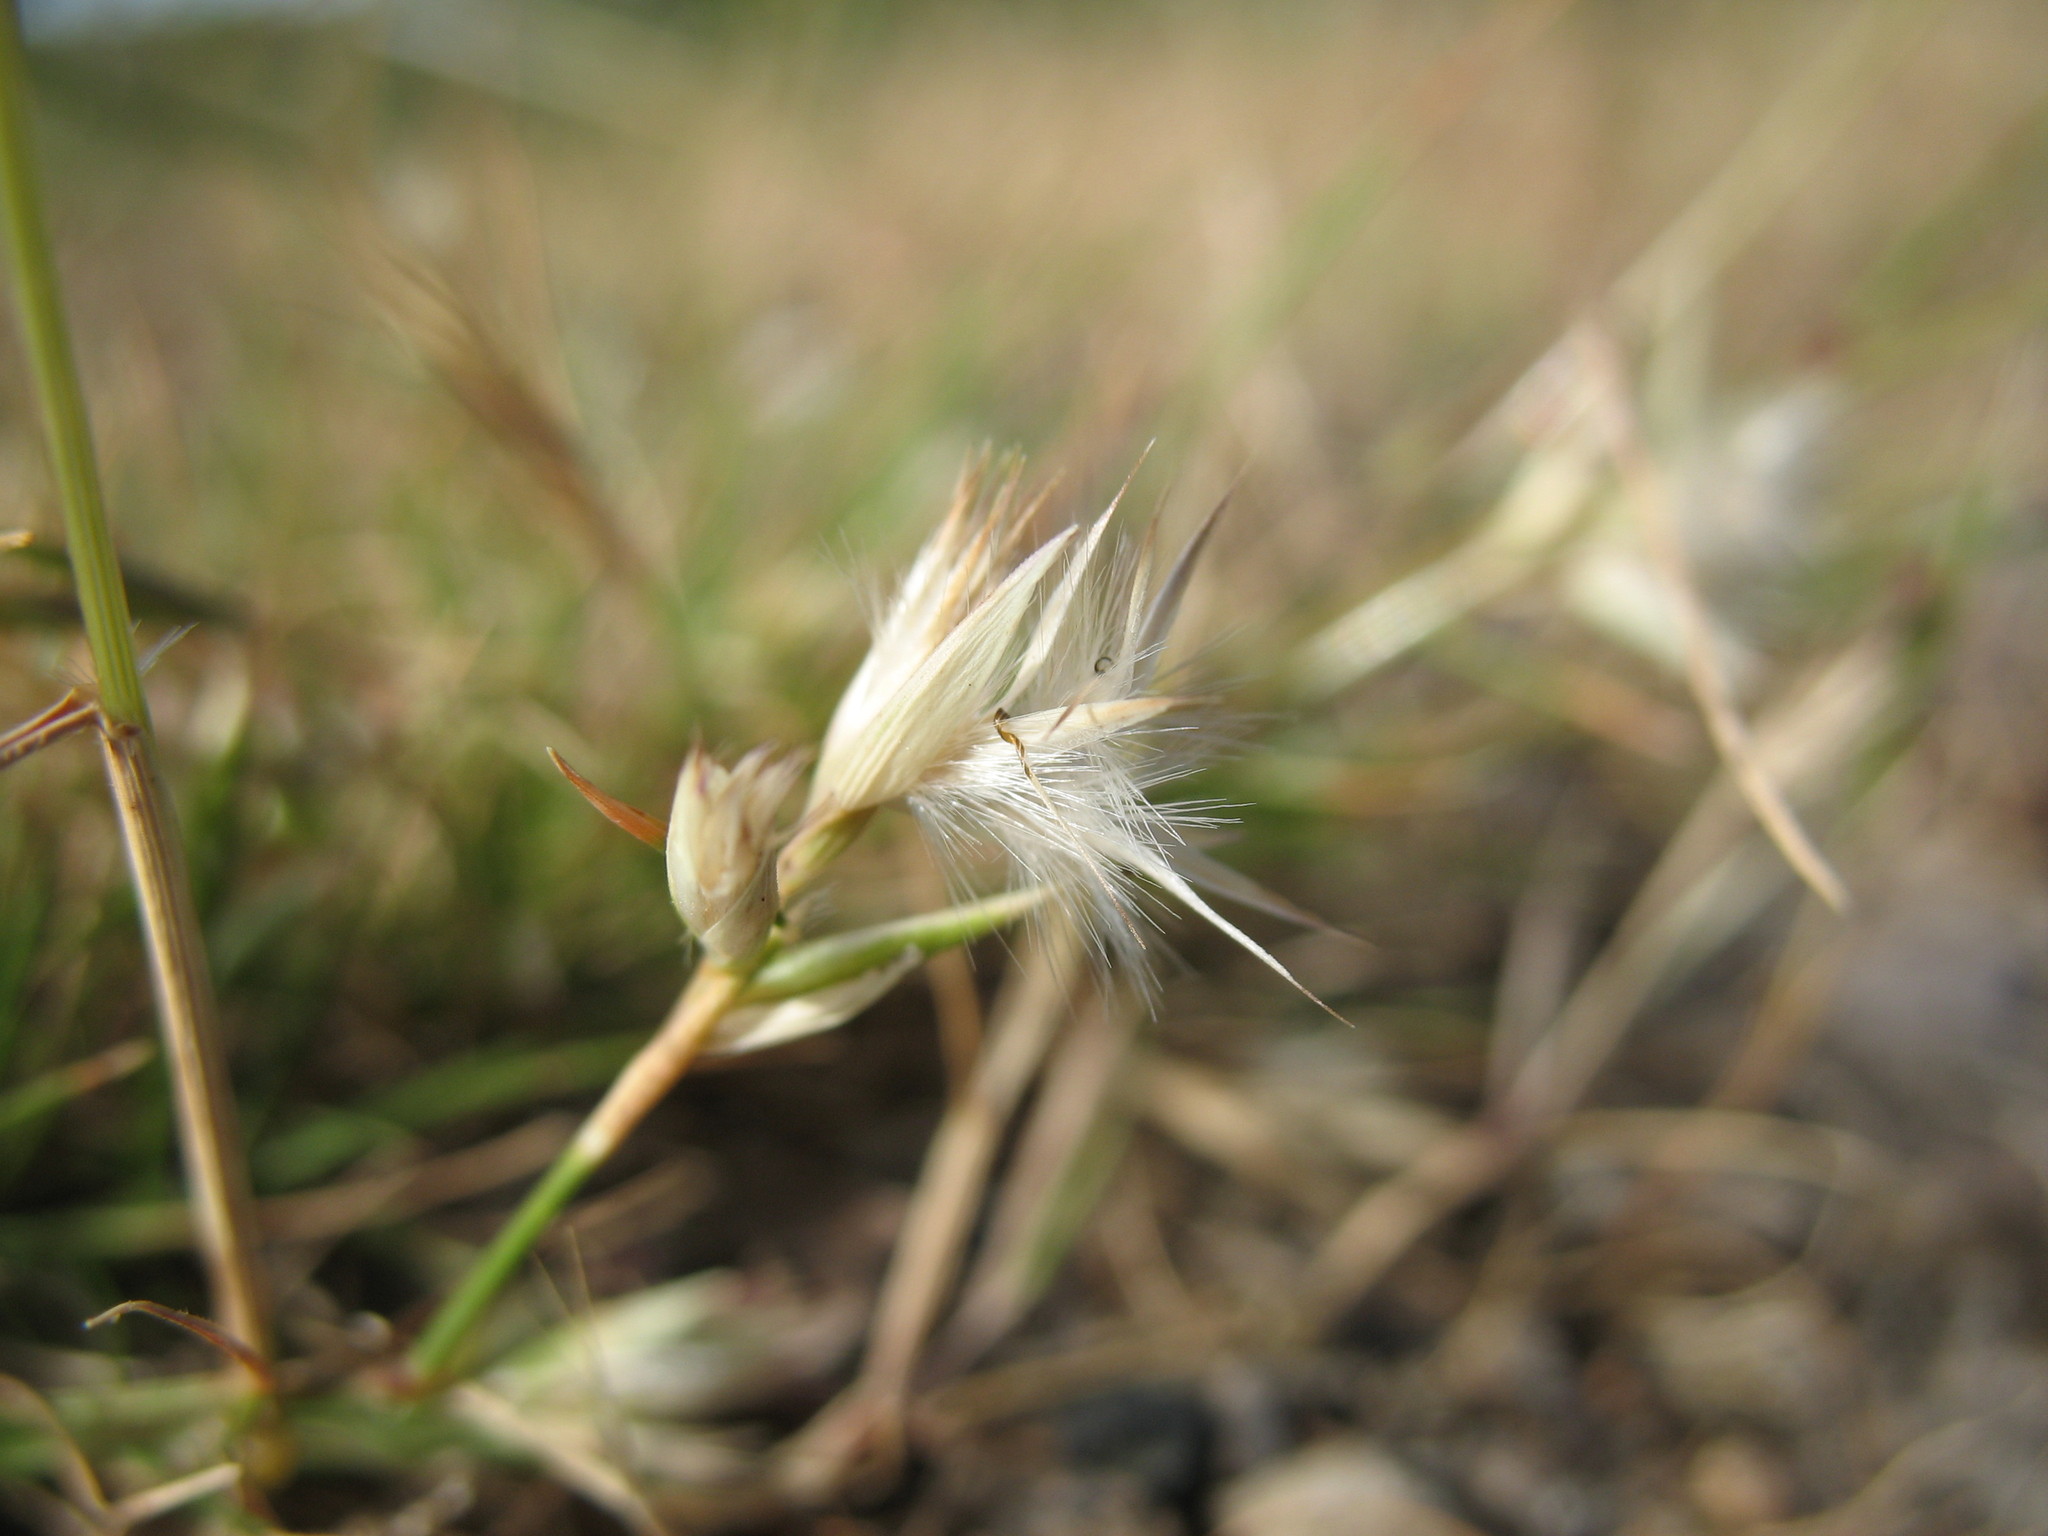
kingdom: Plantae
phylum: Tracheophyta
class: Liliopsida
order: Poales
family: Poaceae
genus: Rytidosperma
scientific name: Rytidosperma geniculatum
